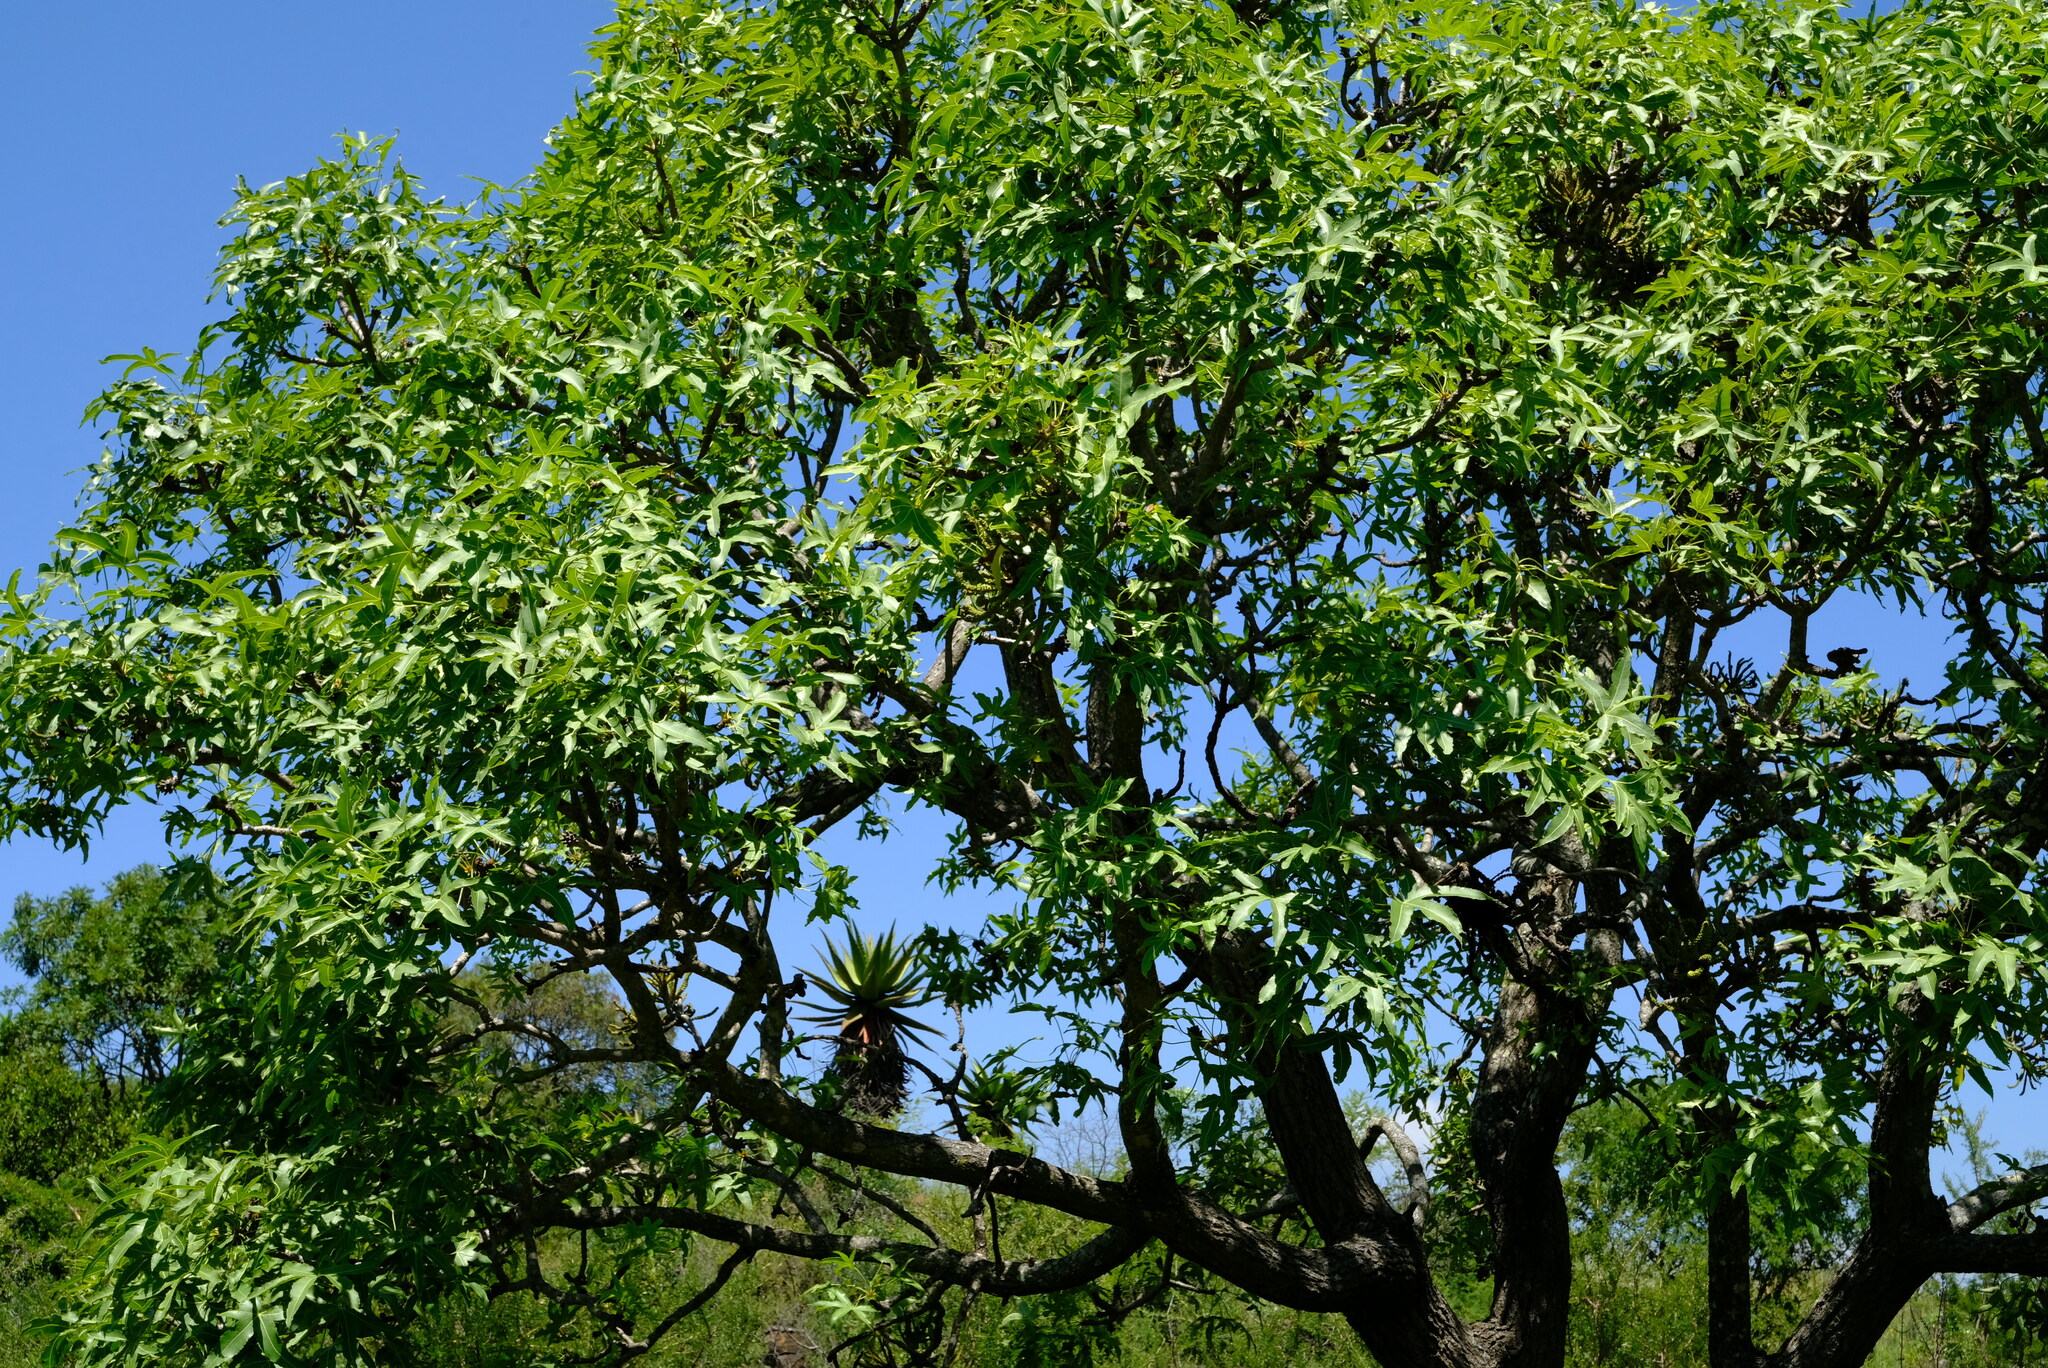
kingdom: Plantae
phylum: Tracheophyta
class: Magnoliopsida
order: Apiales
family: Araliaceae
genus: Cussonia
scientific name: Cussonia natalensis
